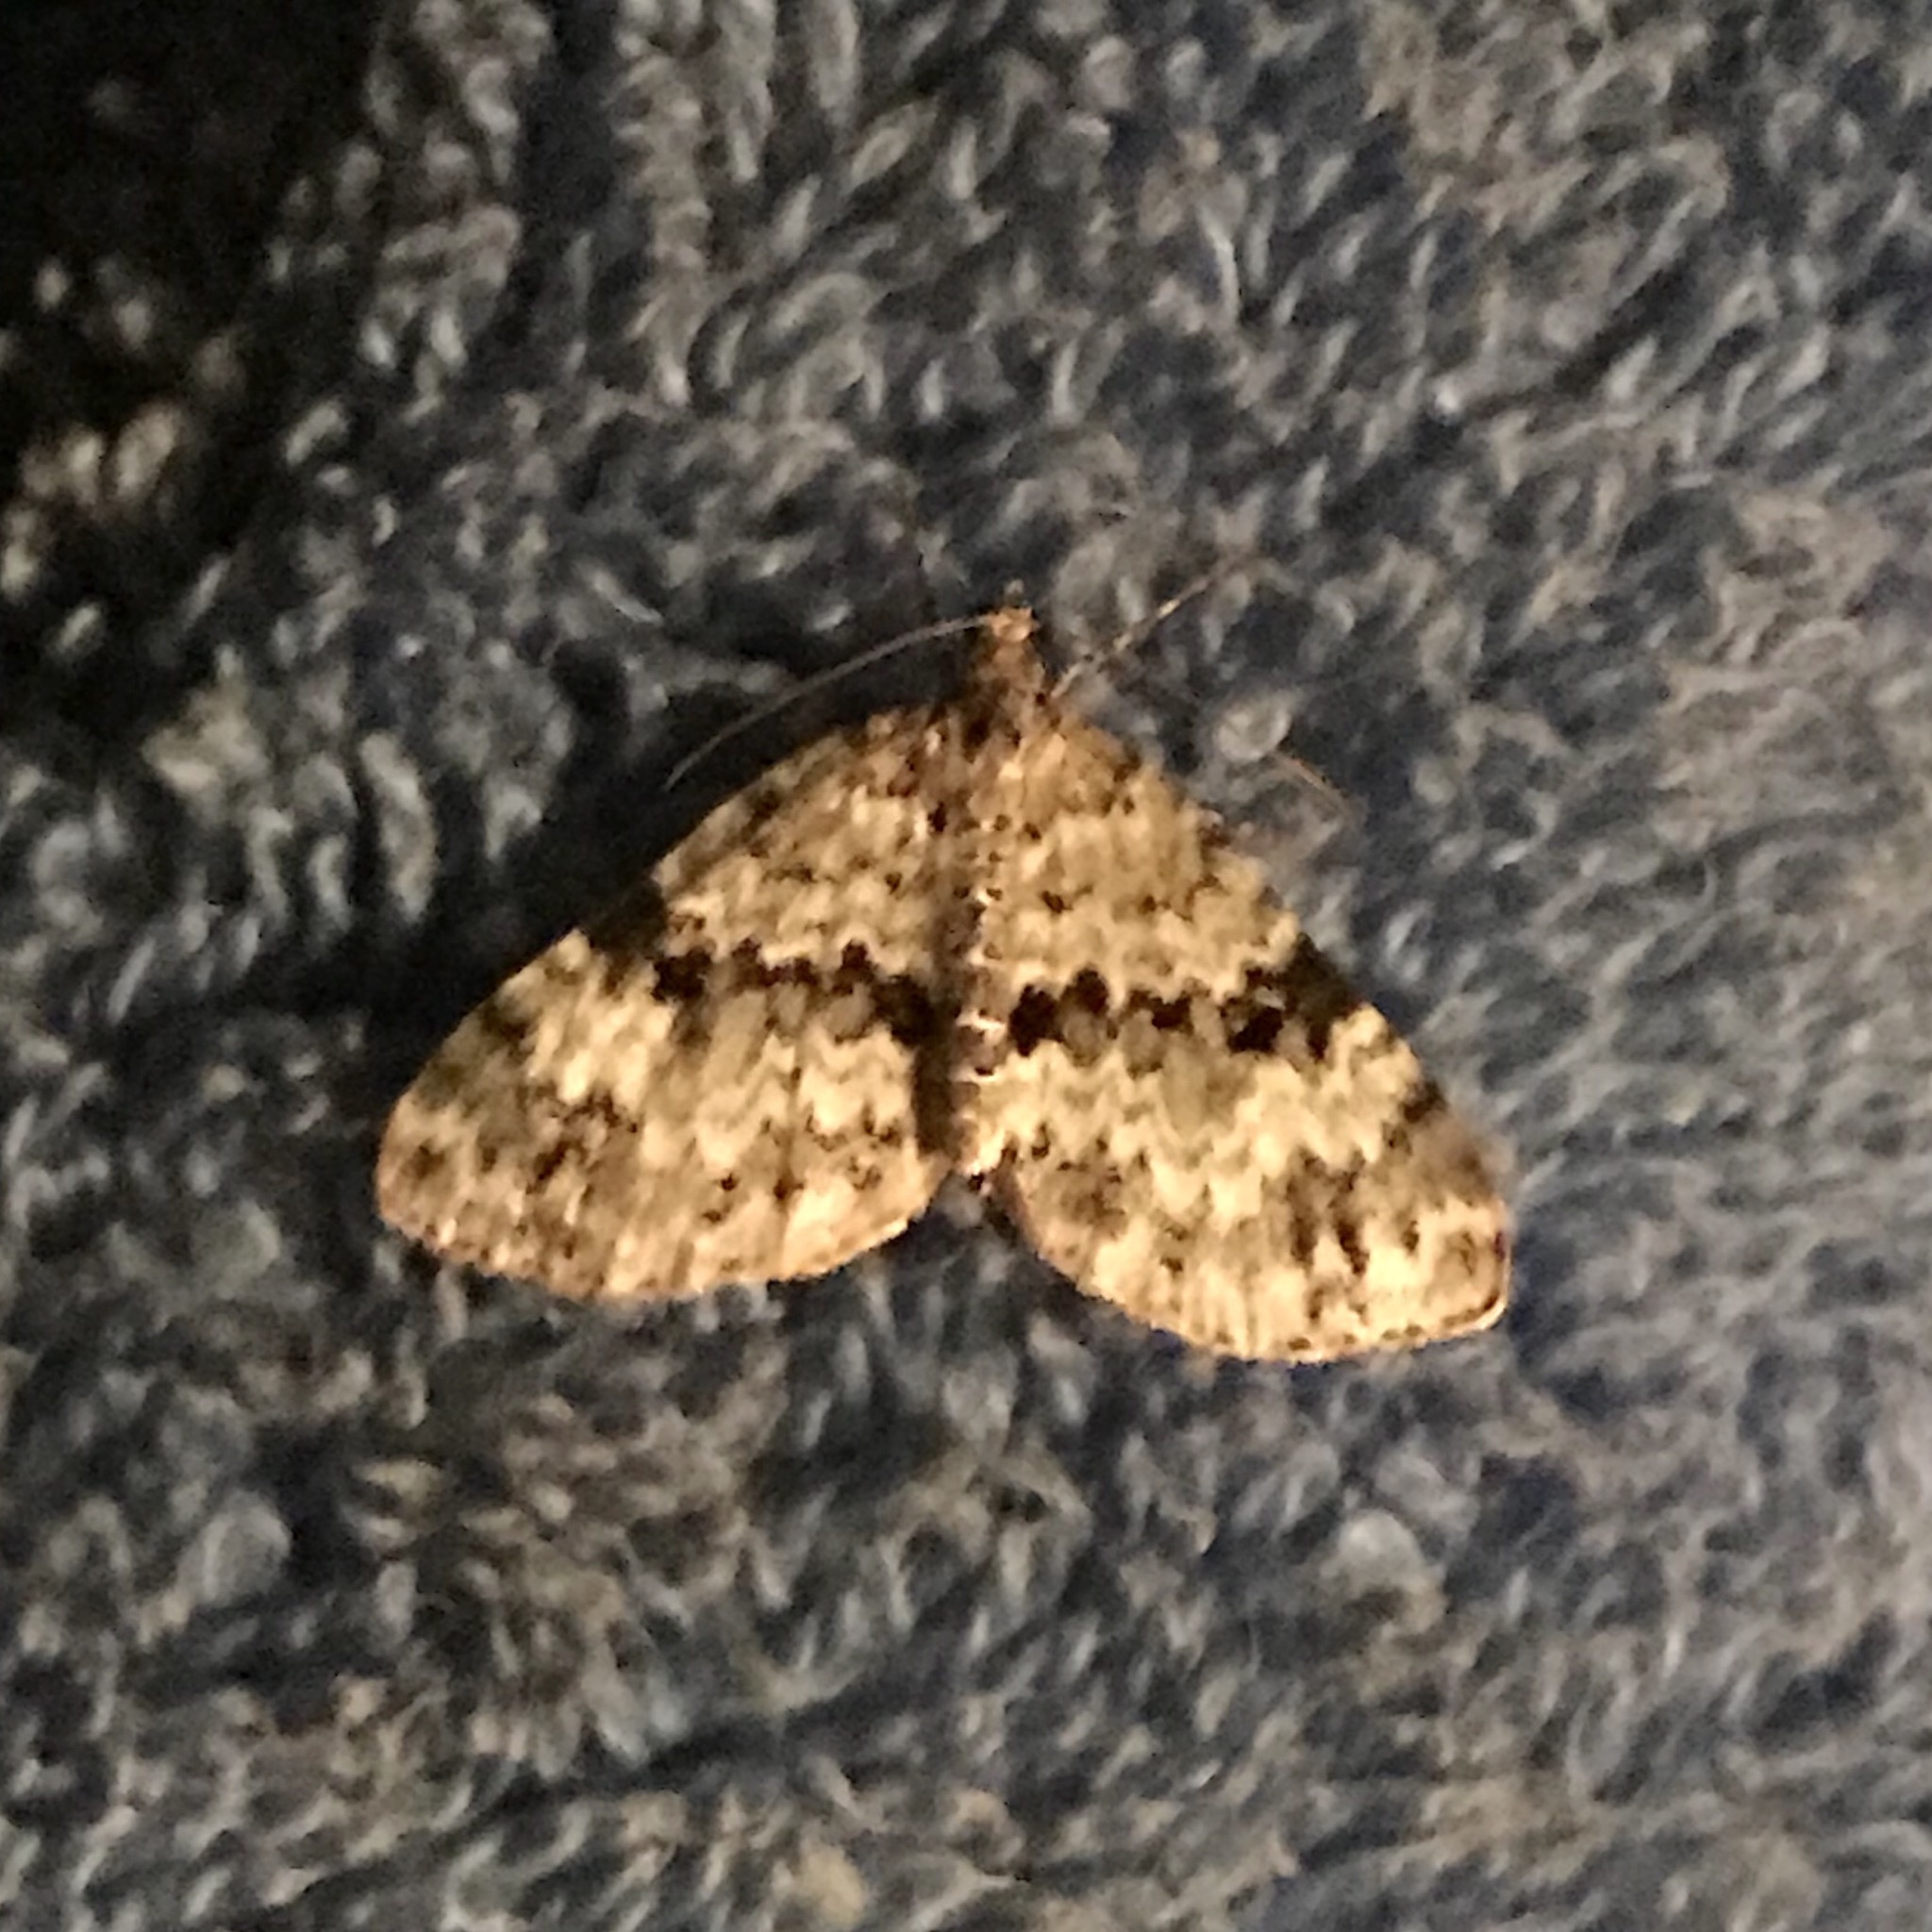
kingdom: Animalia
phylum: Arthropoda
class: Insecta
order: Lepidoptera
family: Geometridae
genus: Spargania
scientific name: Spargania magnoliata
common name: Double-banded carpet
